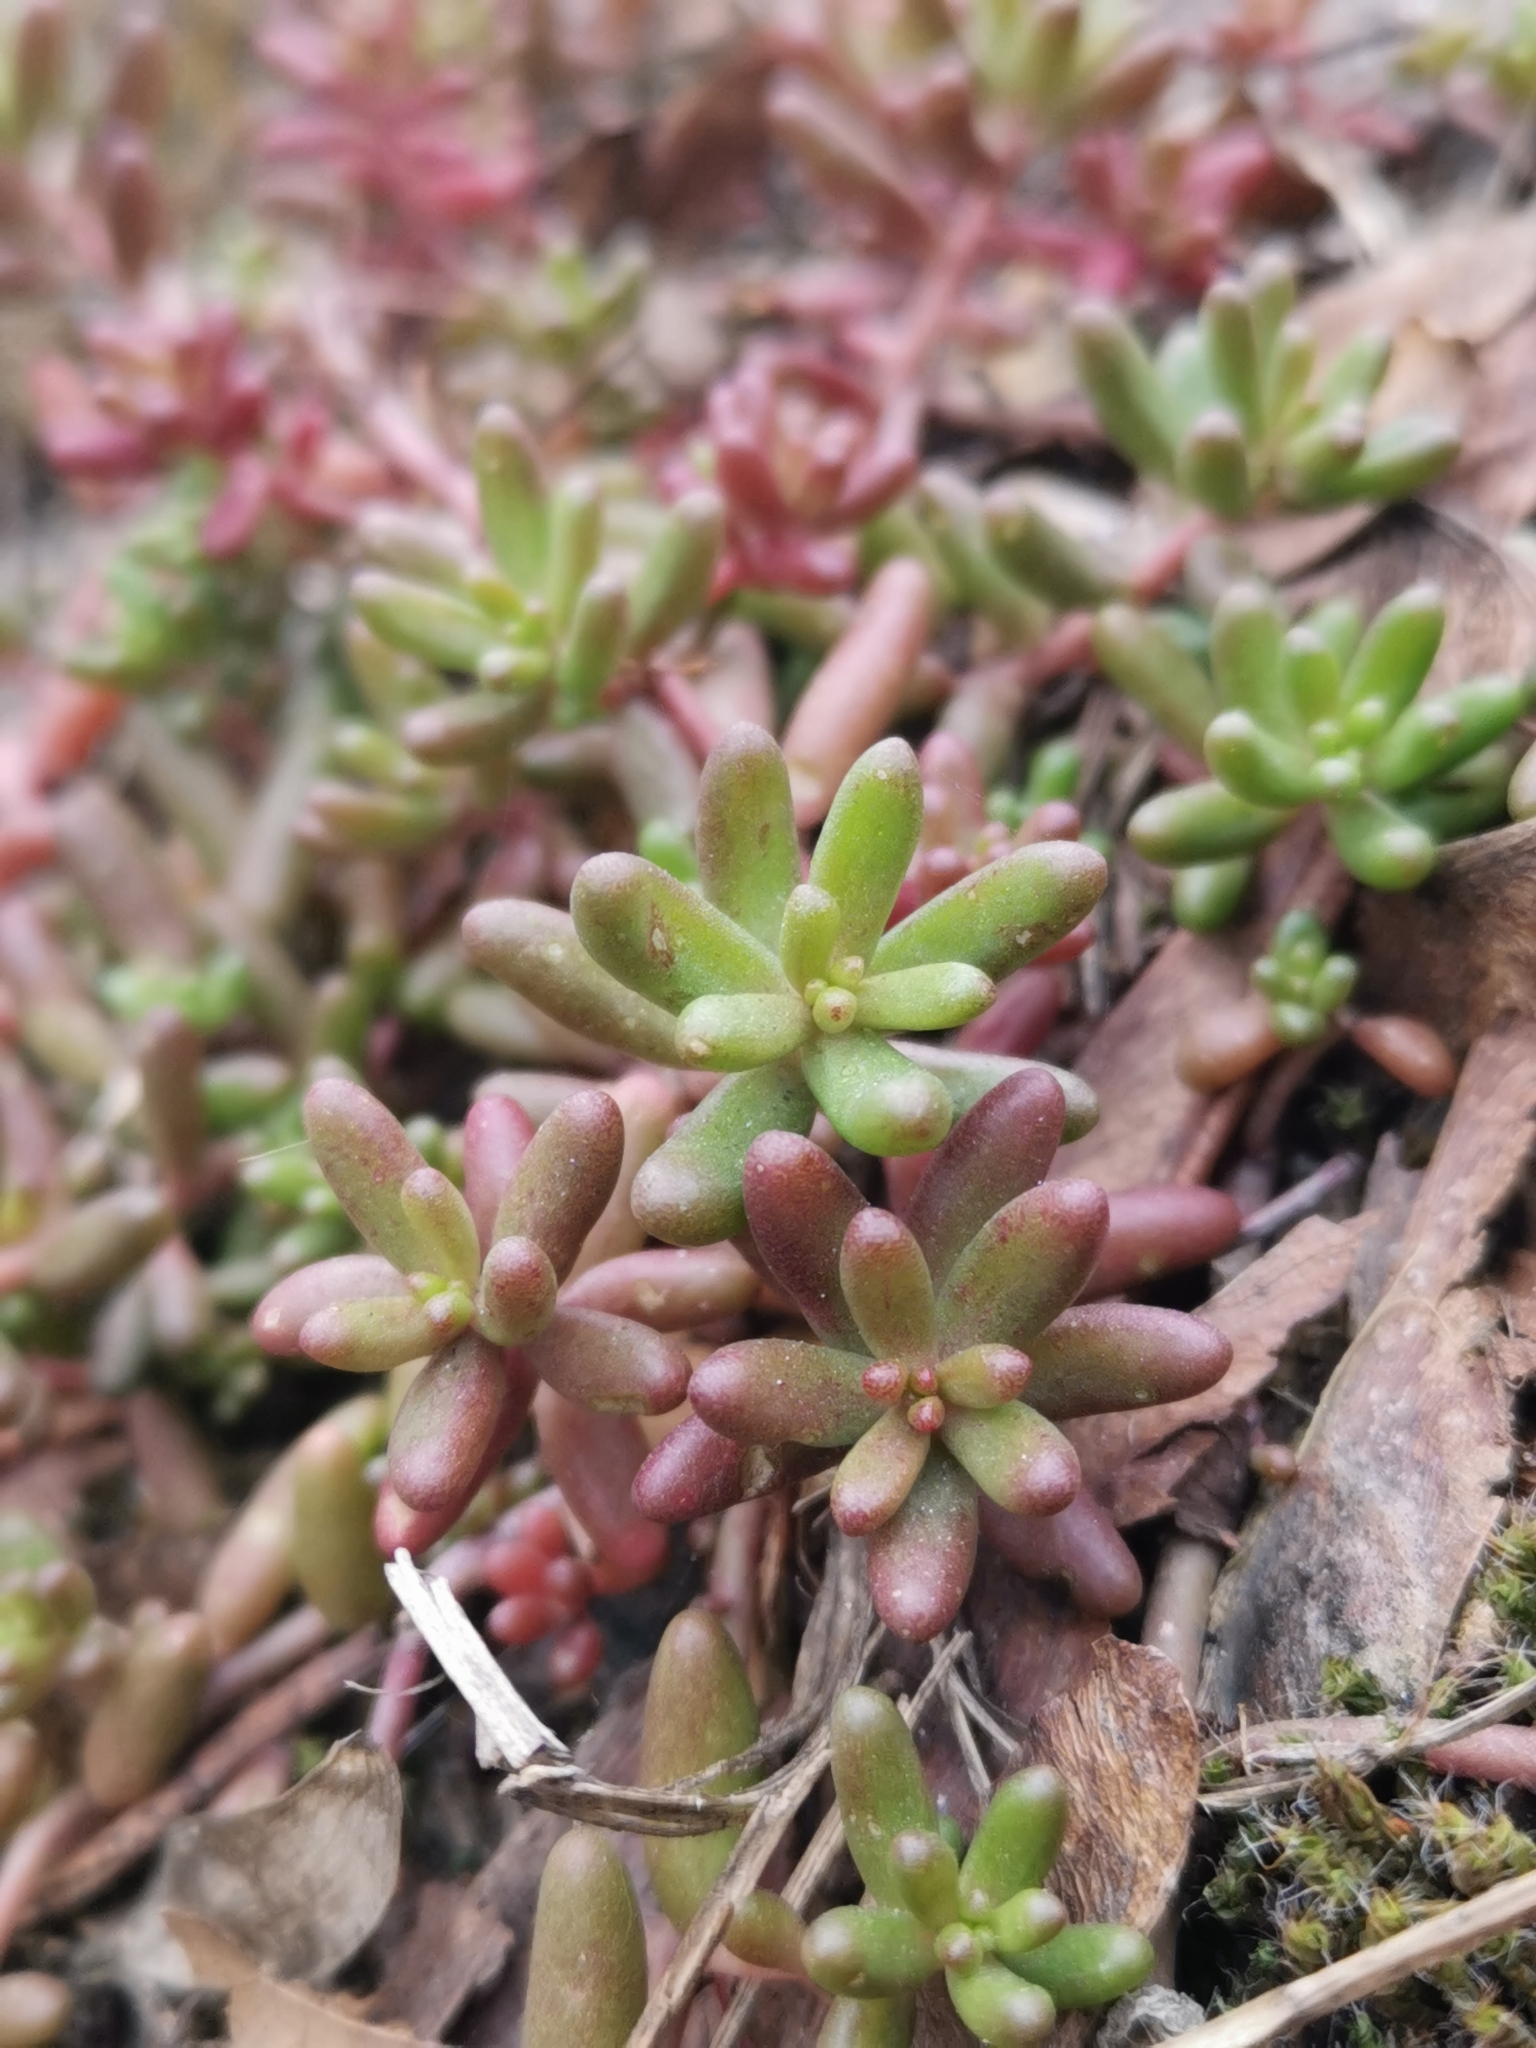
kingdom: Plantae
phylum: Tracheophyta
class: Magnoliopsida
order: Saxifragales
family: Crassulaceae
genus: Sedum
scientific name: Sedum album
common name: White stonecrop
